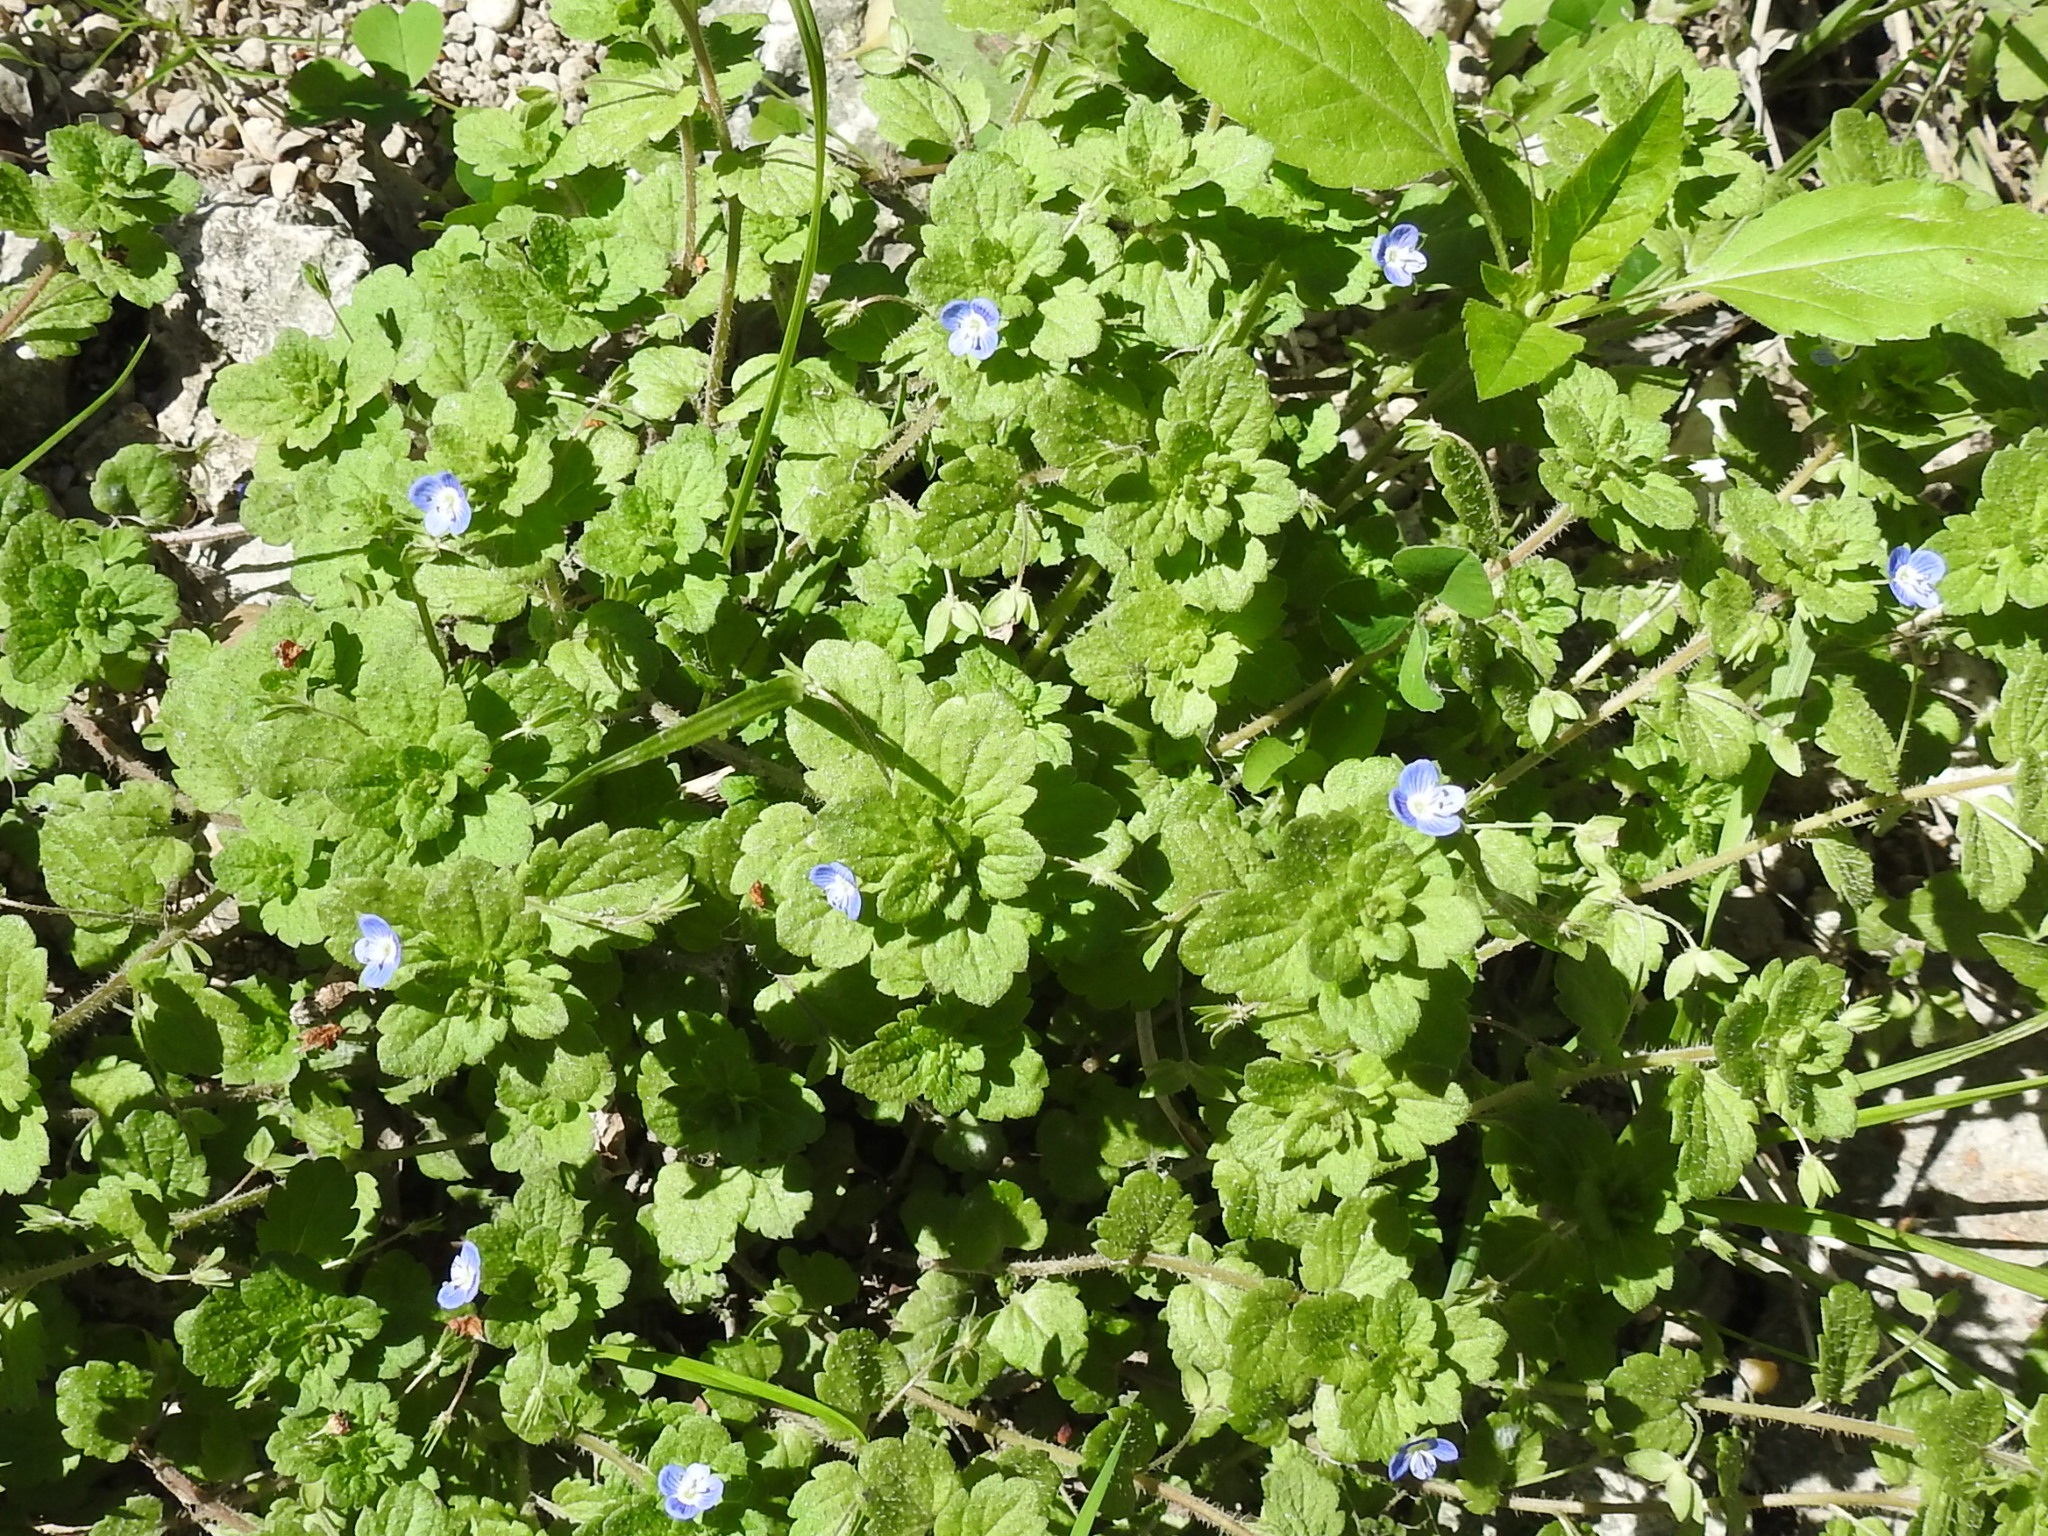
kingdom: Plantae
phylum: Tracheophyta
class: Magnoliopsida
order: Lamiales
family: Plantaginaceae
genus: Veronica
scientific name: Veronica persica
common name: Common field-speedwell
